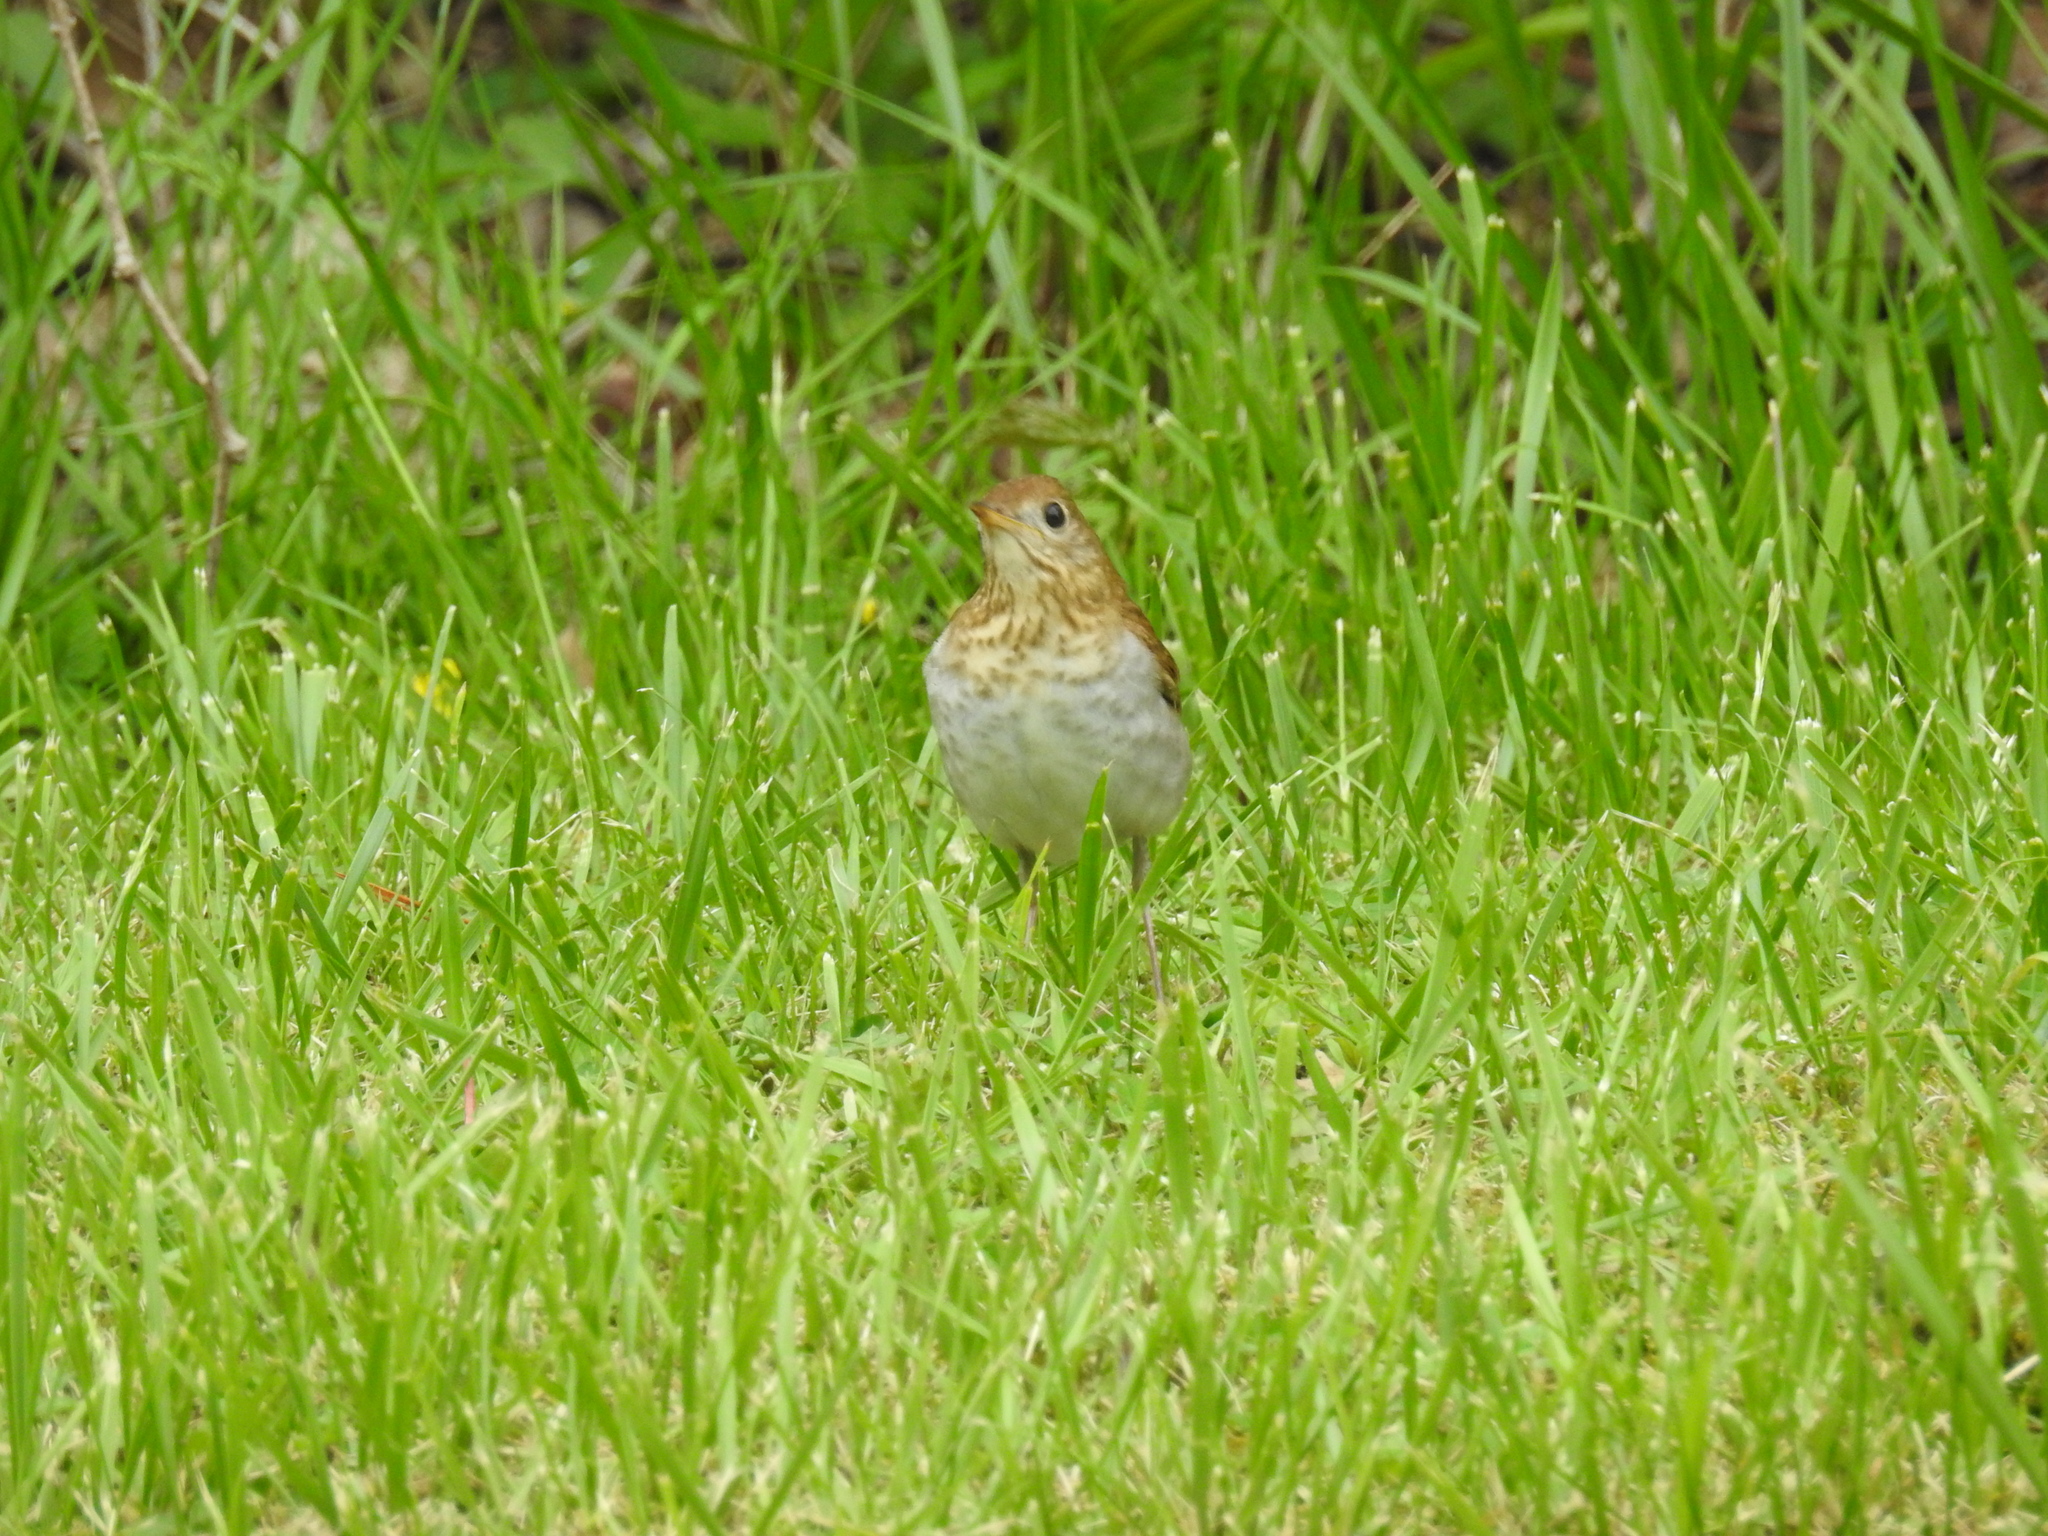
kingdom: Animalia
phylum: Chordata
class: Aves
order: Passeriformes
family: Turdidae
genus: Catharus
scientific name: Catharus fuscescens
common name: Veery
